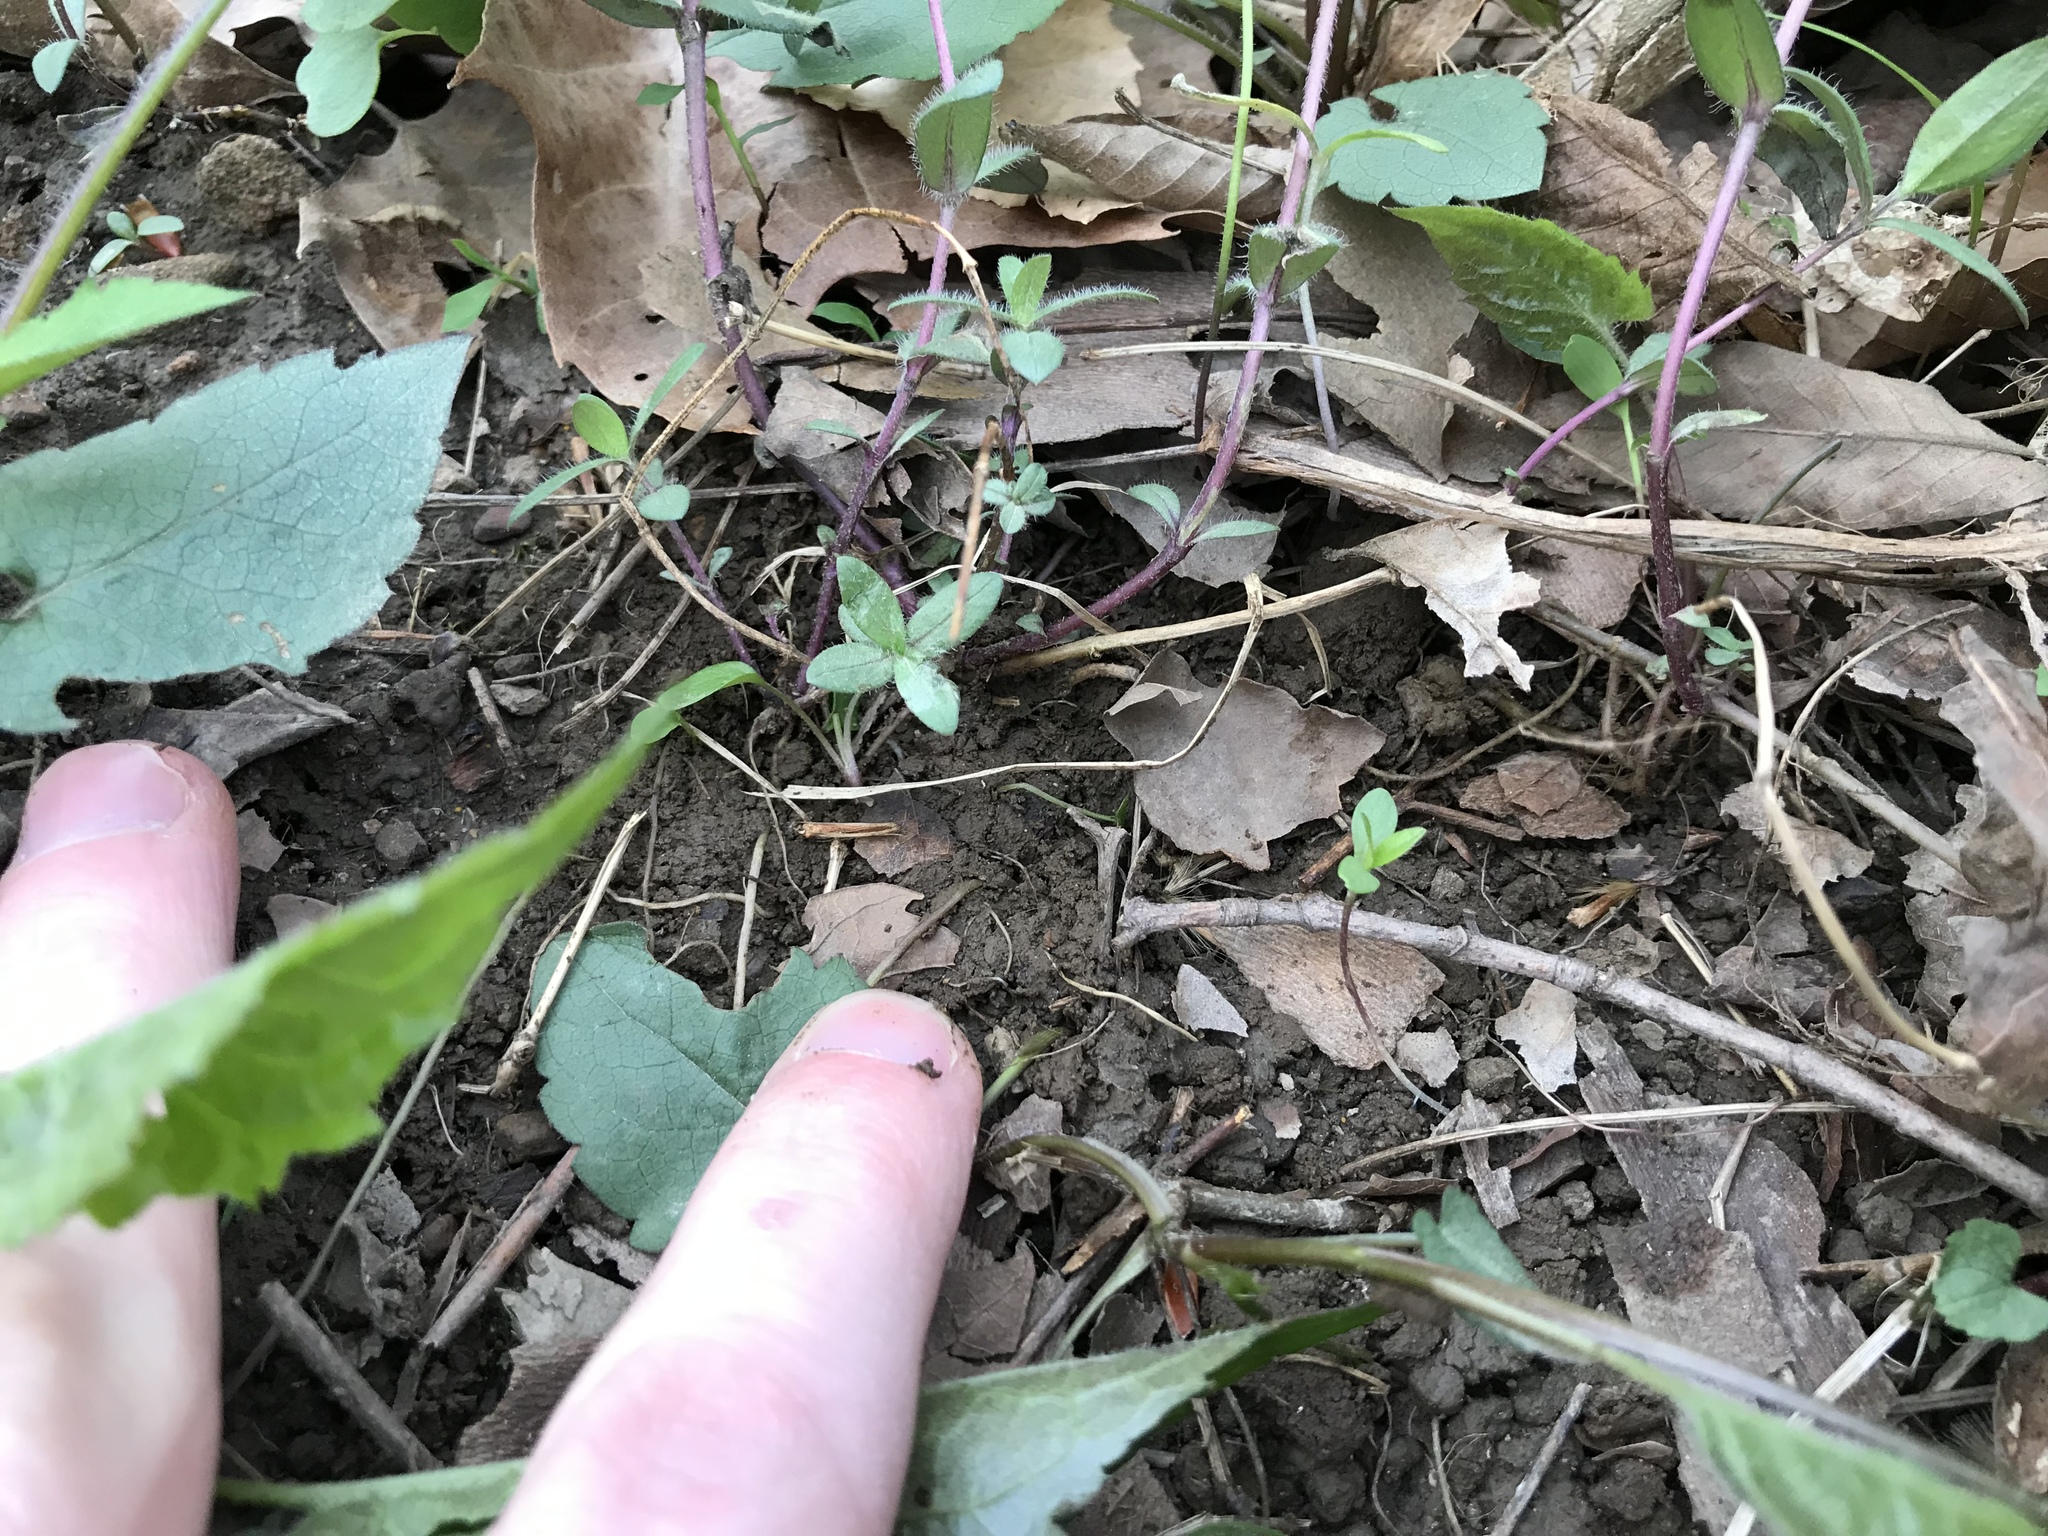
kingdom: Plantae
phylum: Tracheophyta
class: Magnoliopsida
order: Ericales
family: Polemoniaceae
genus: Phlox
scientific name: Phlox divaricata
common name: Blue phlox
